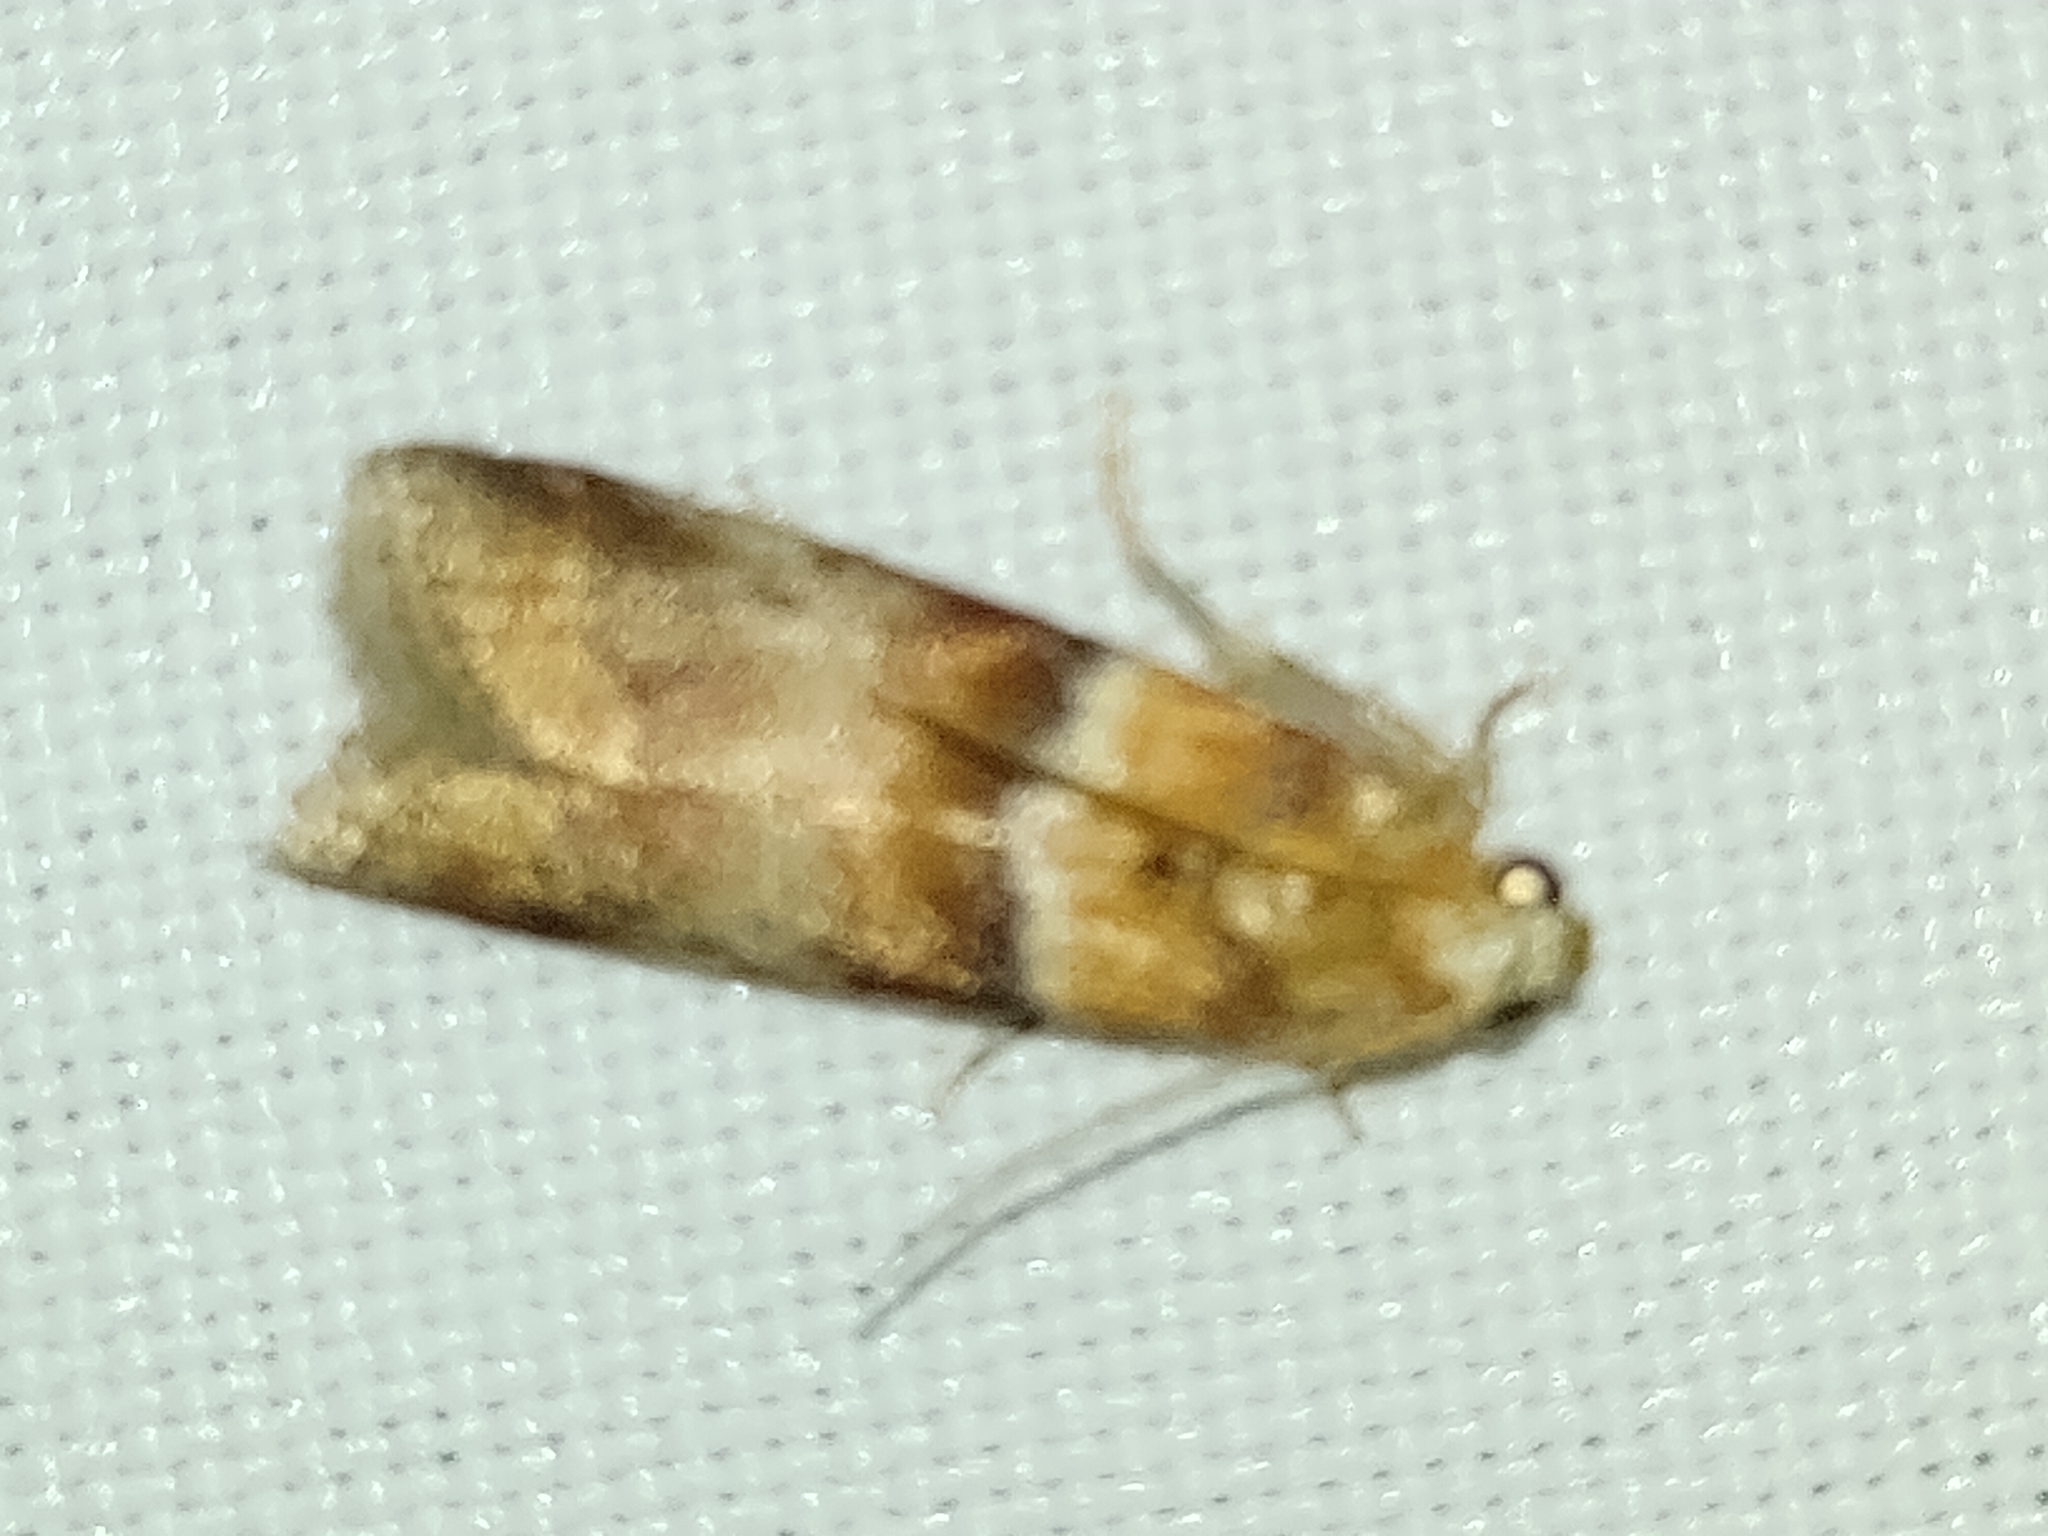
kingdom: Animalia
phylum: Arthropoda
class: Insecta
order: Lepidoptera
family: Pyralidae
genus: Acrobasis
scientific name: Acrobasis repandana
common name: Warted knot-horn
